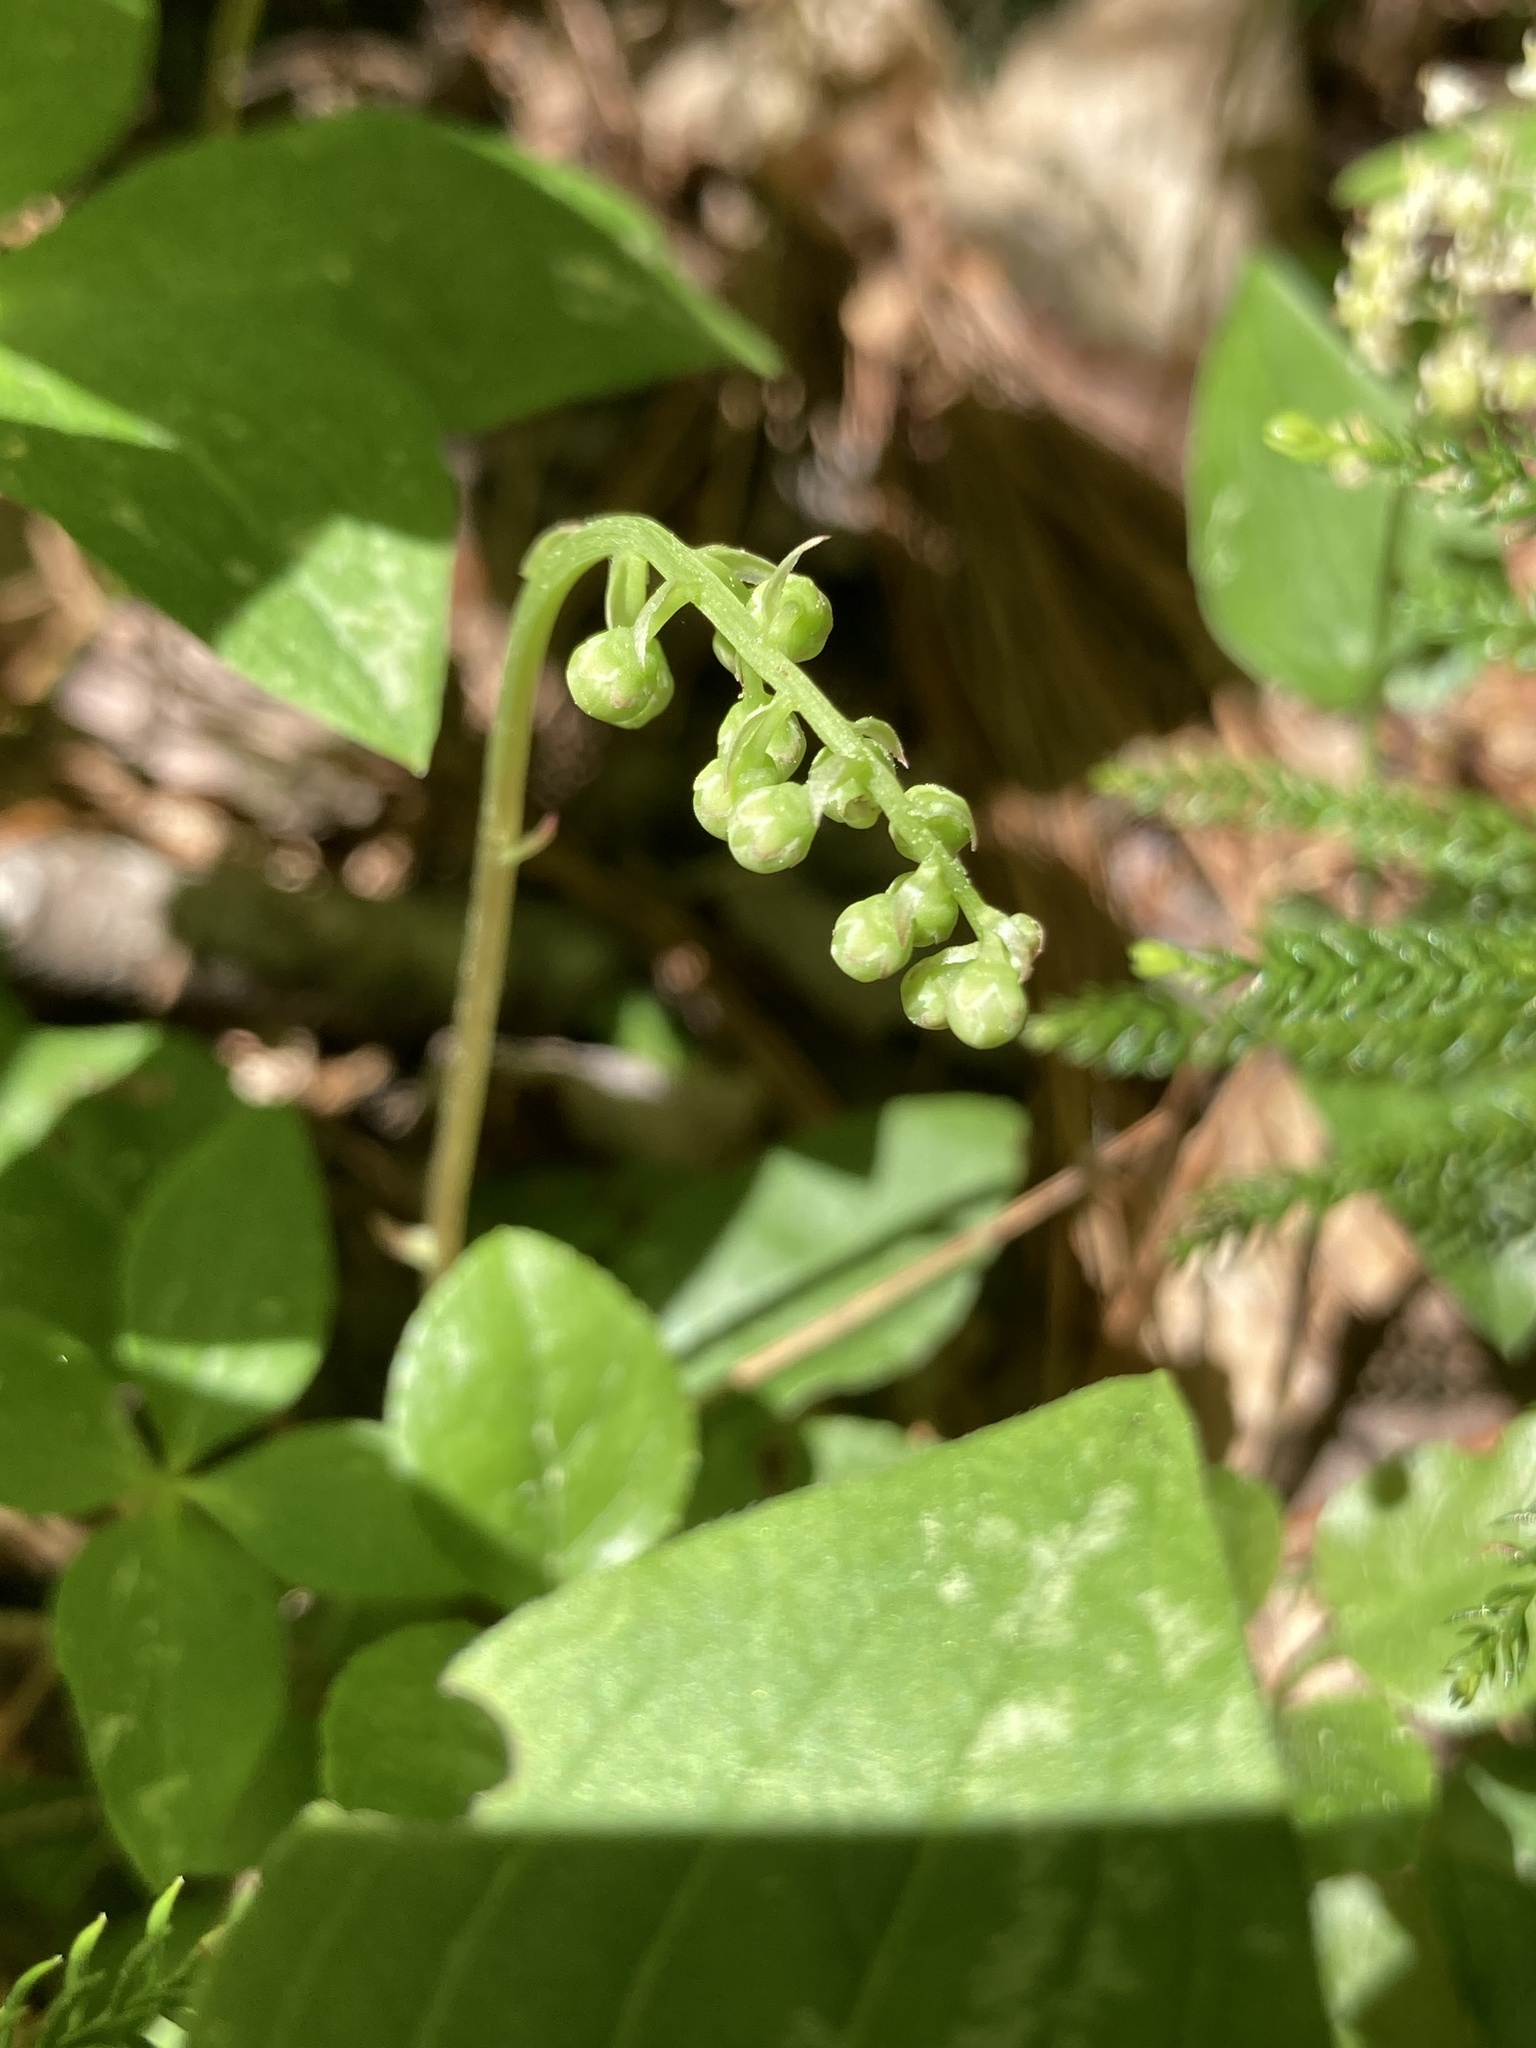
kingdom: Plantae
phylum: Tracheophyta
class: Magnoliopsida
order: Ericales
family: Ericaceae
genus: Orthilia
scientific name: Orthilia secunda
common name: One-sided orthilia
